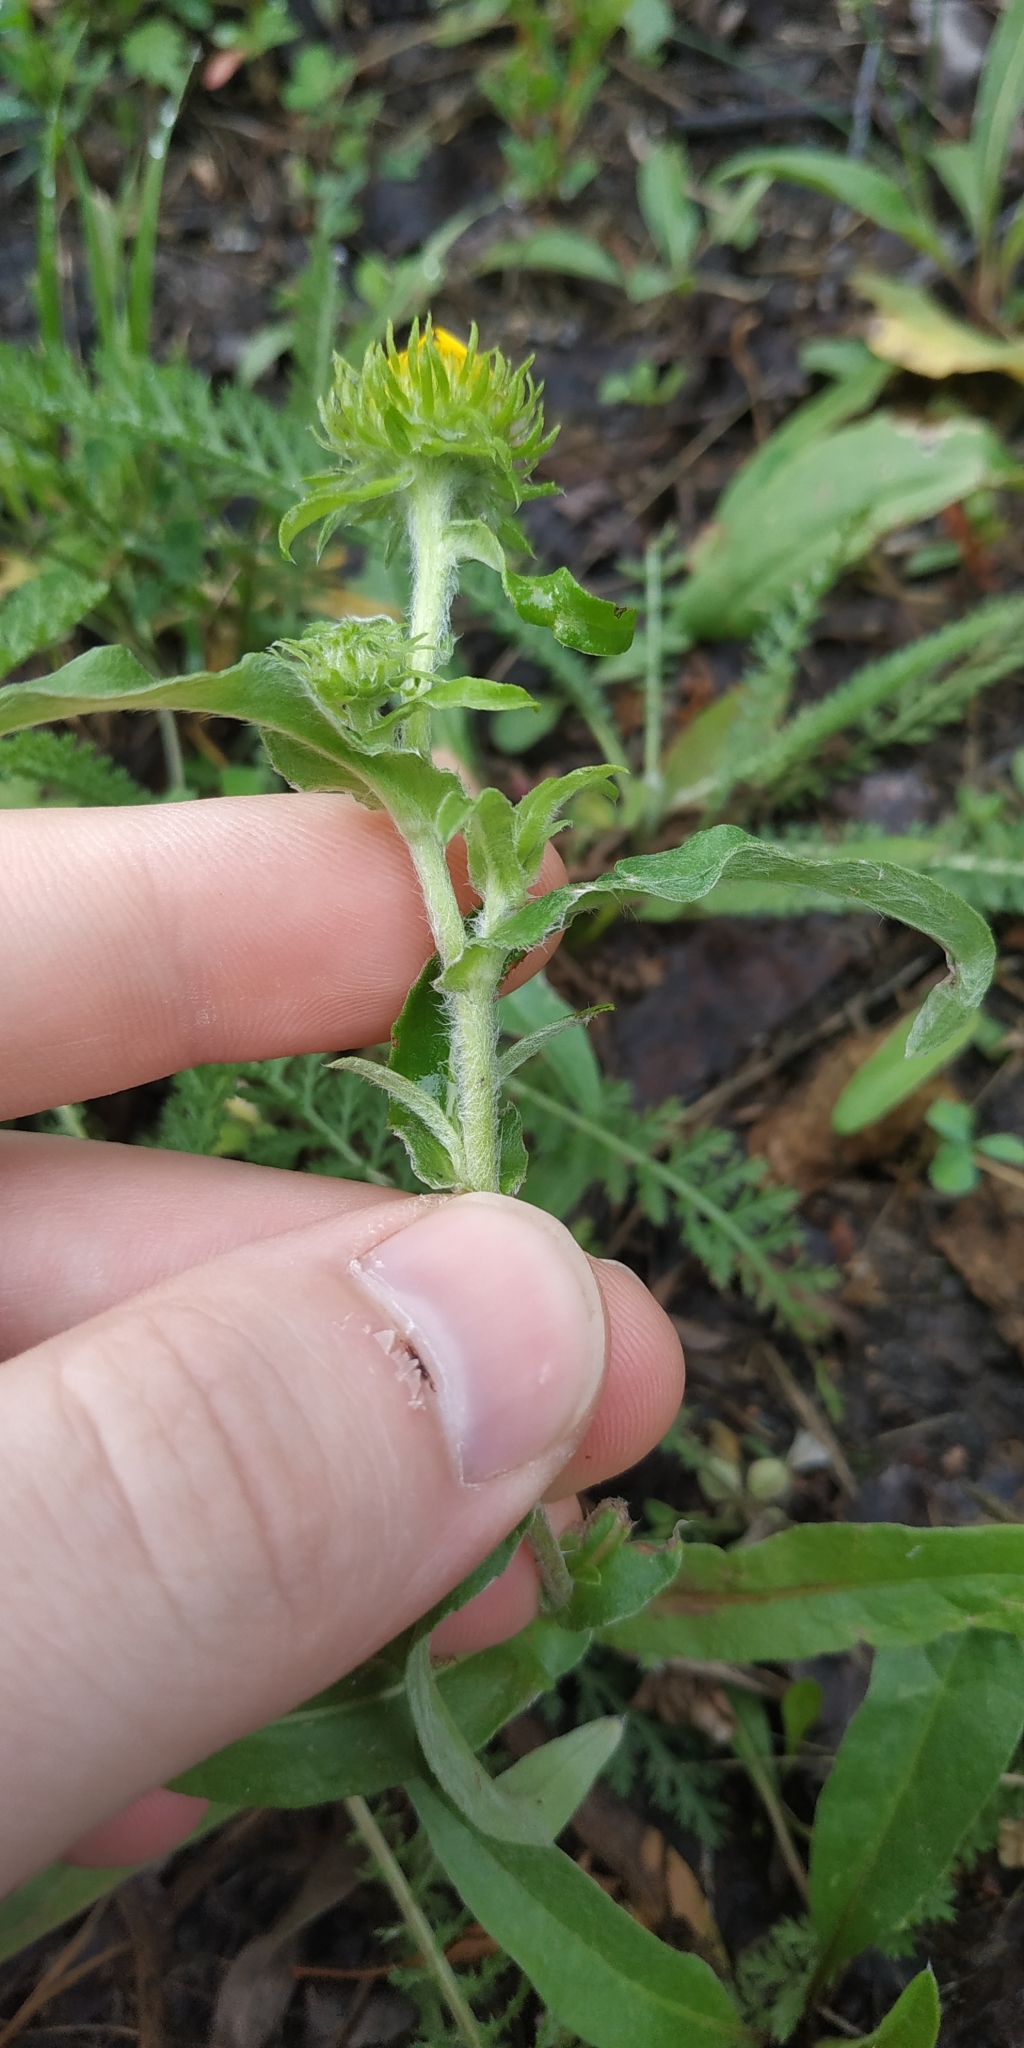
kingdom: Plantae
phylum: Tracheophyta
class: Magnoliopsida
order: Asterales
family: Asteraceae
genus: Pentanema
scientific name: Pentanema britannicum
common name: British elecampane
